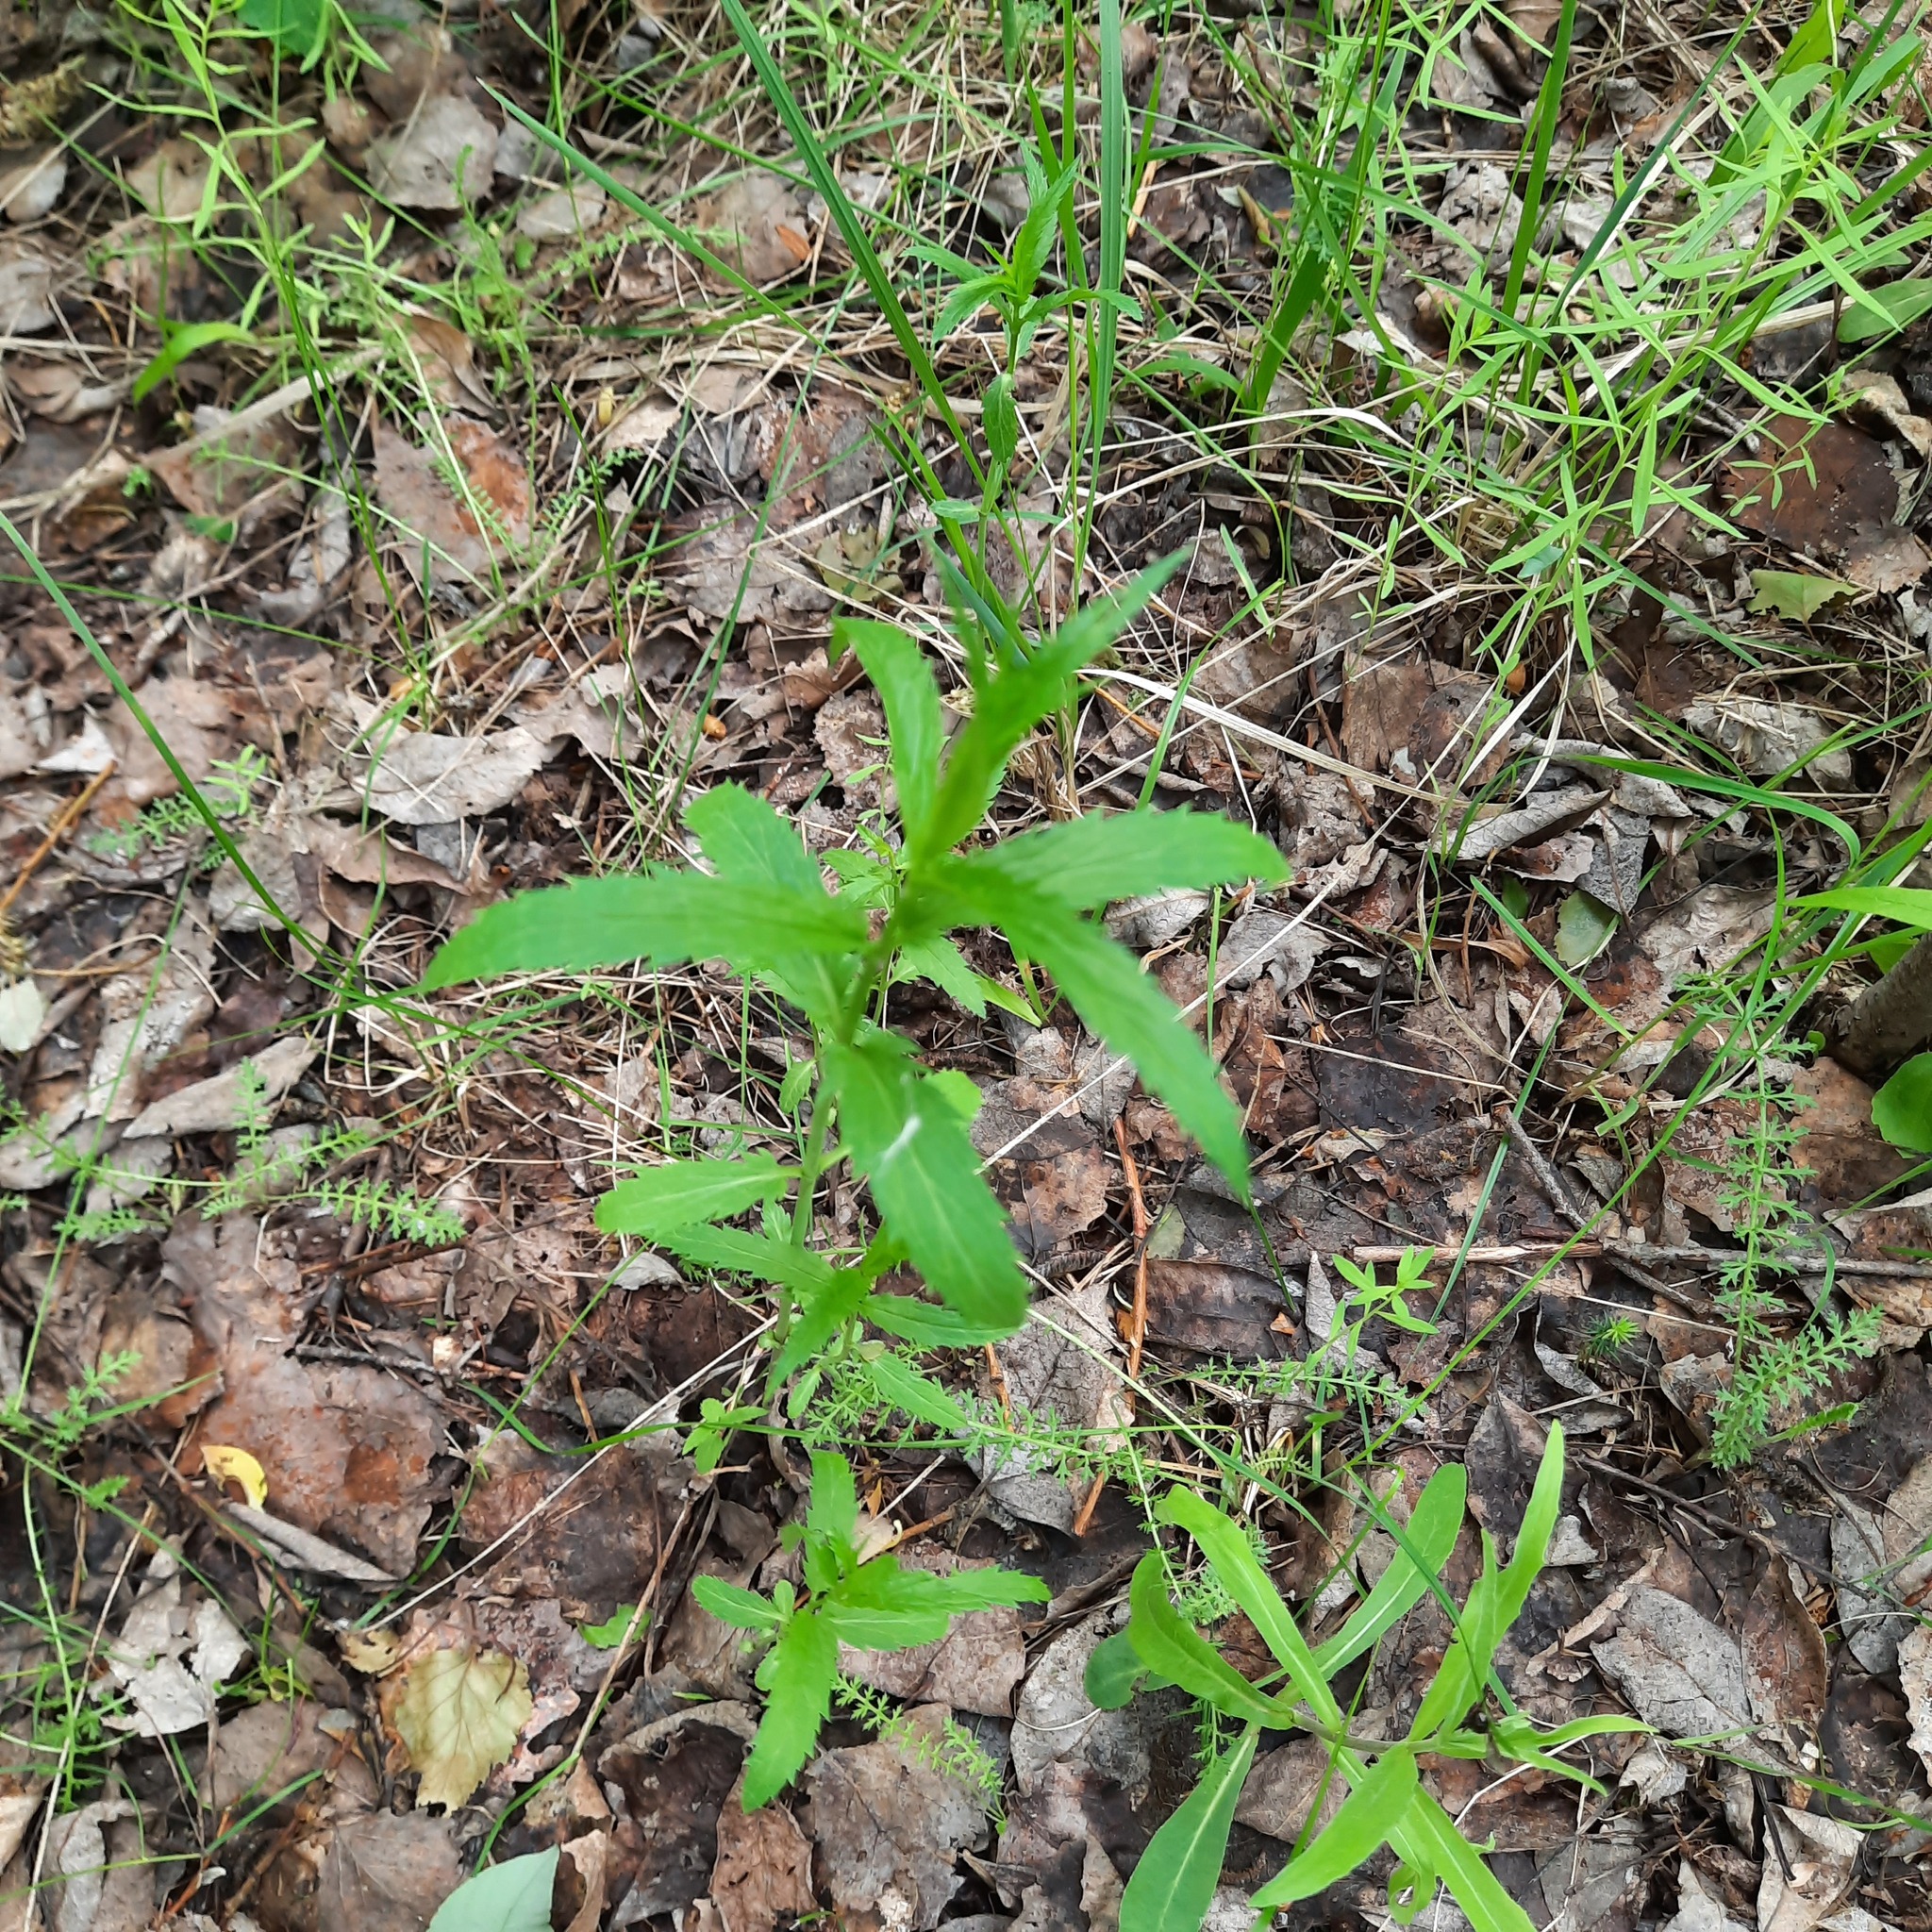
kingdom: Plantae
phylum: Tracheophyta
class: Magnoliopsida
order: Lamiales
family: Plantaginaceae
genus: Veronica
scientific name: Veronica longifolia
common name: Garden speedwell
